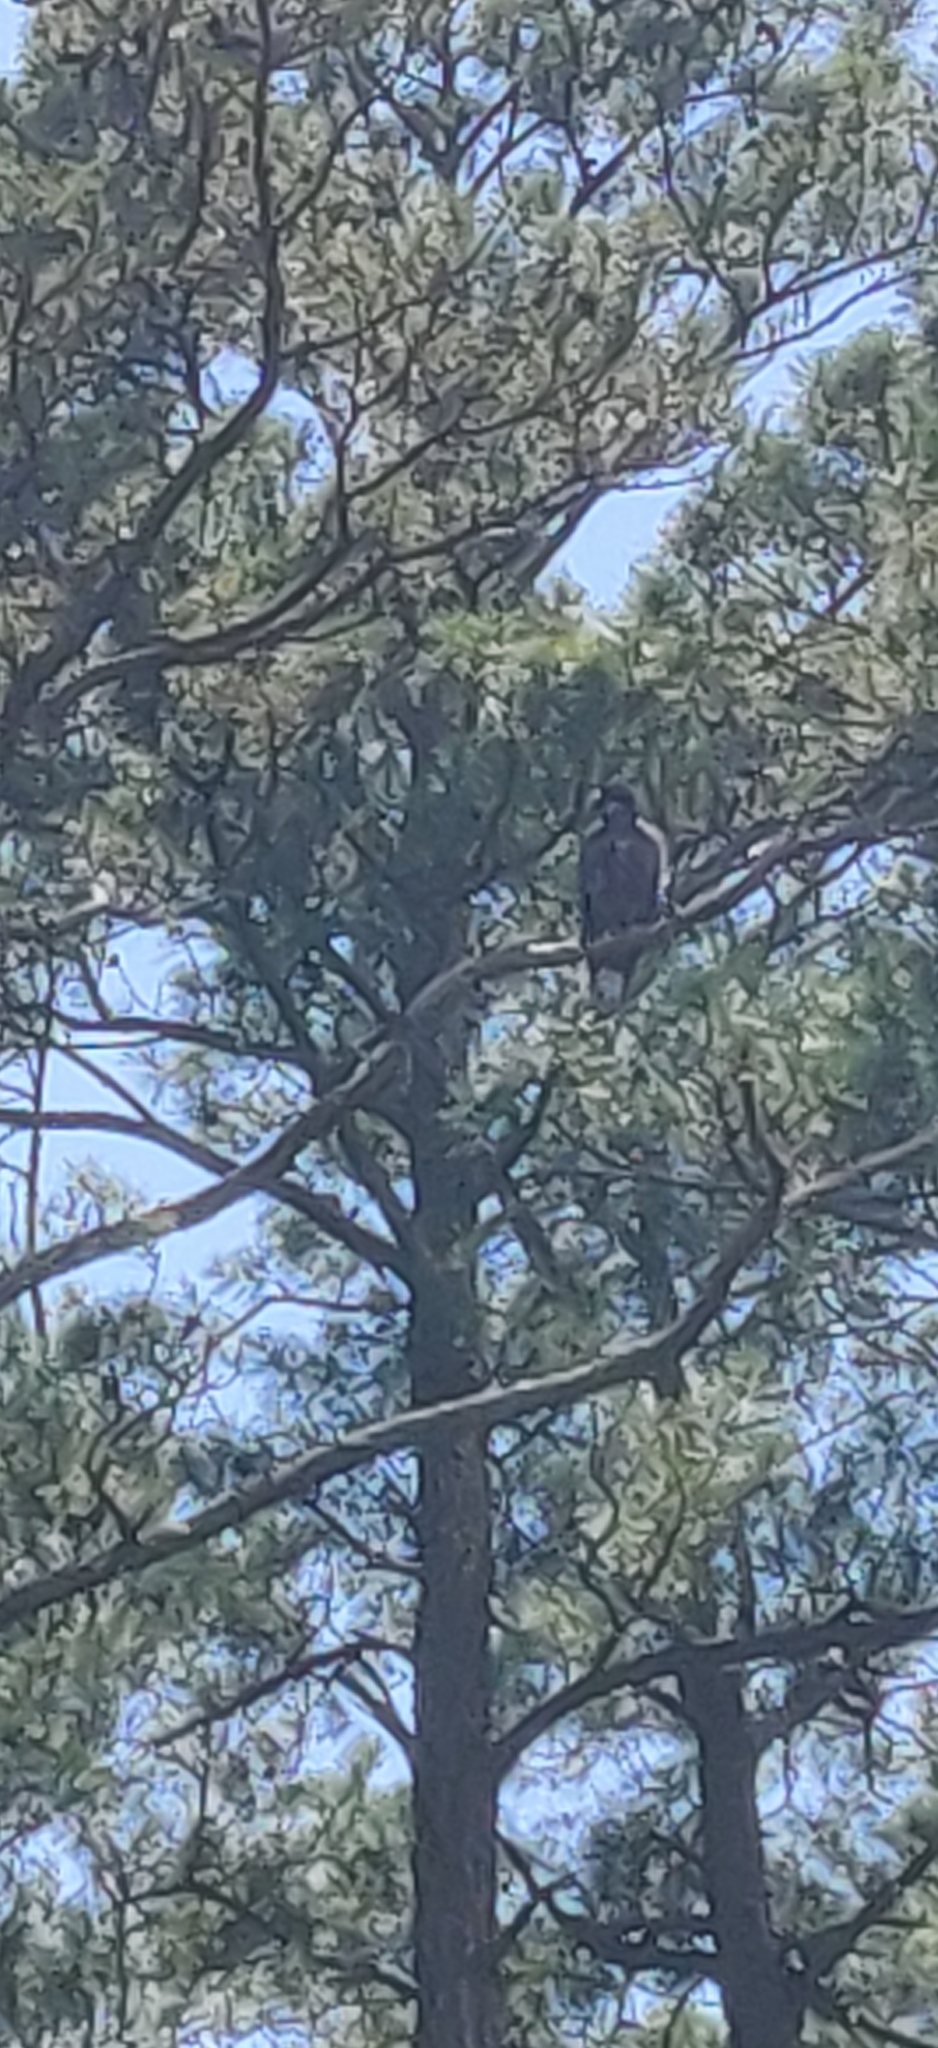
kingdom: Animalia
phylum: Chordata
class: Aves
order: Accipitriformes
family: Accipitridae
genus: Haliaeetus
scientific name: Haliaeetus leucocephalus
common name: Bald eagle
